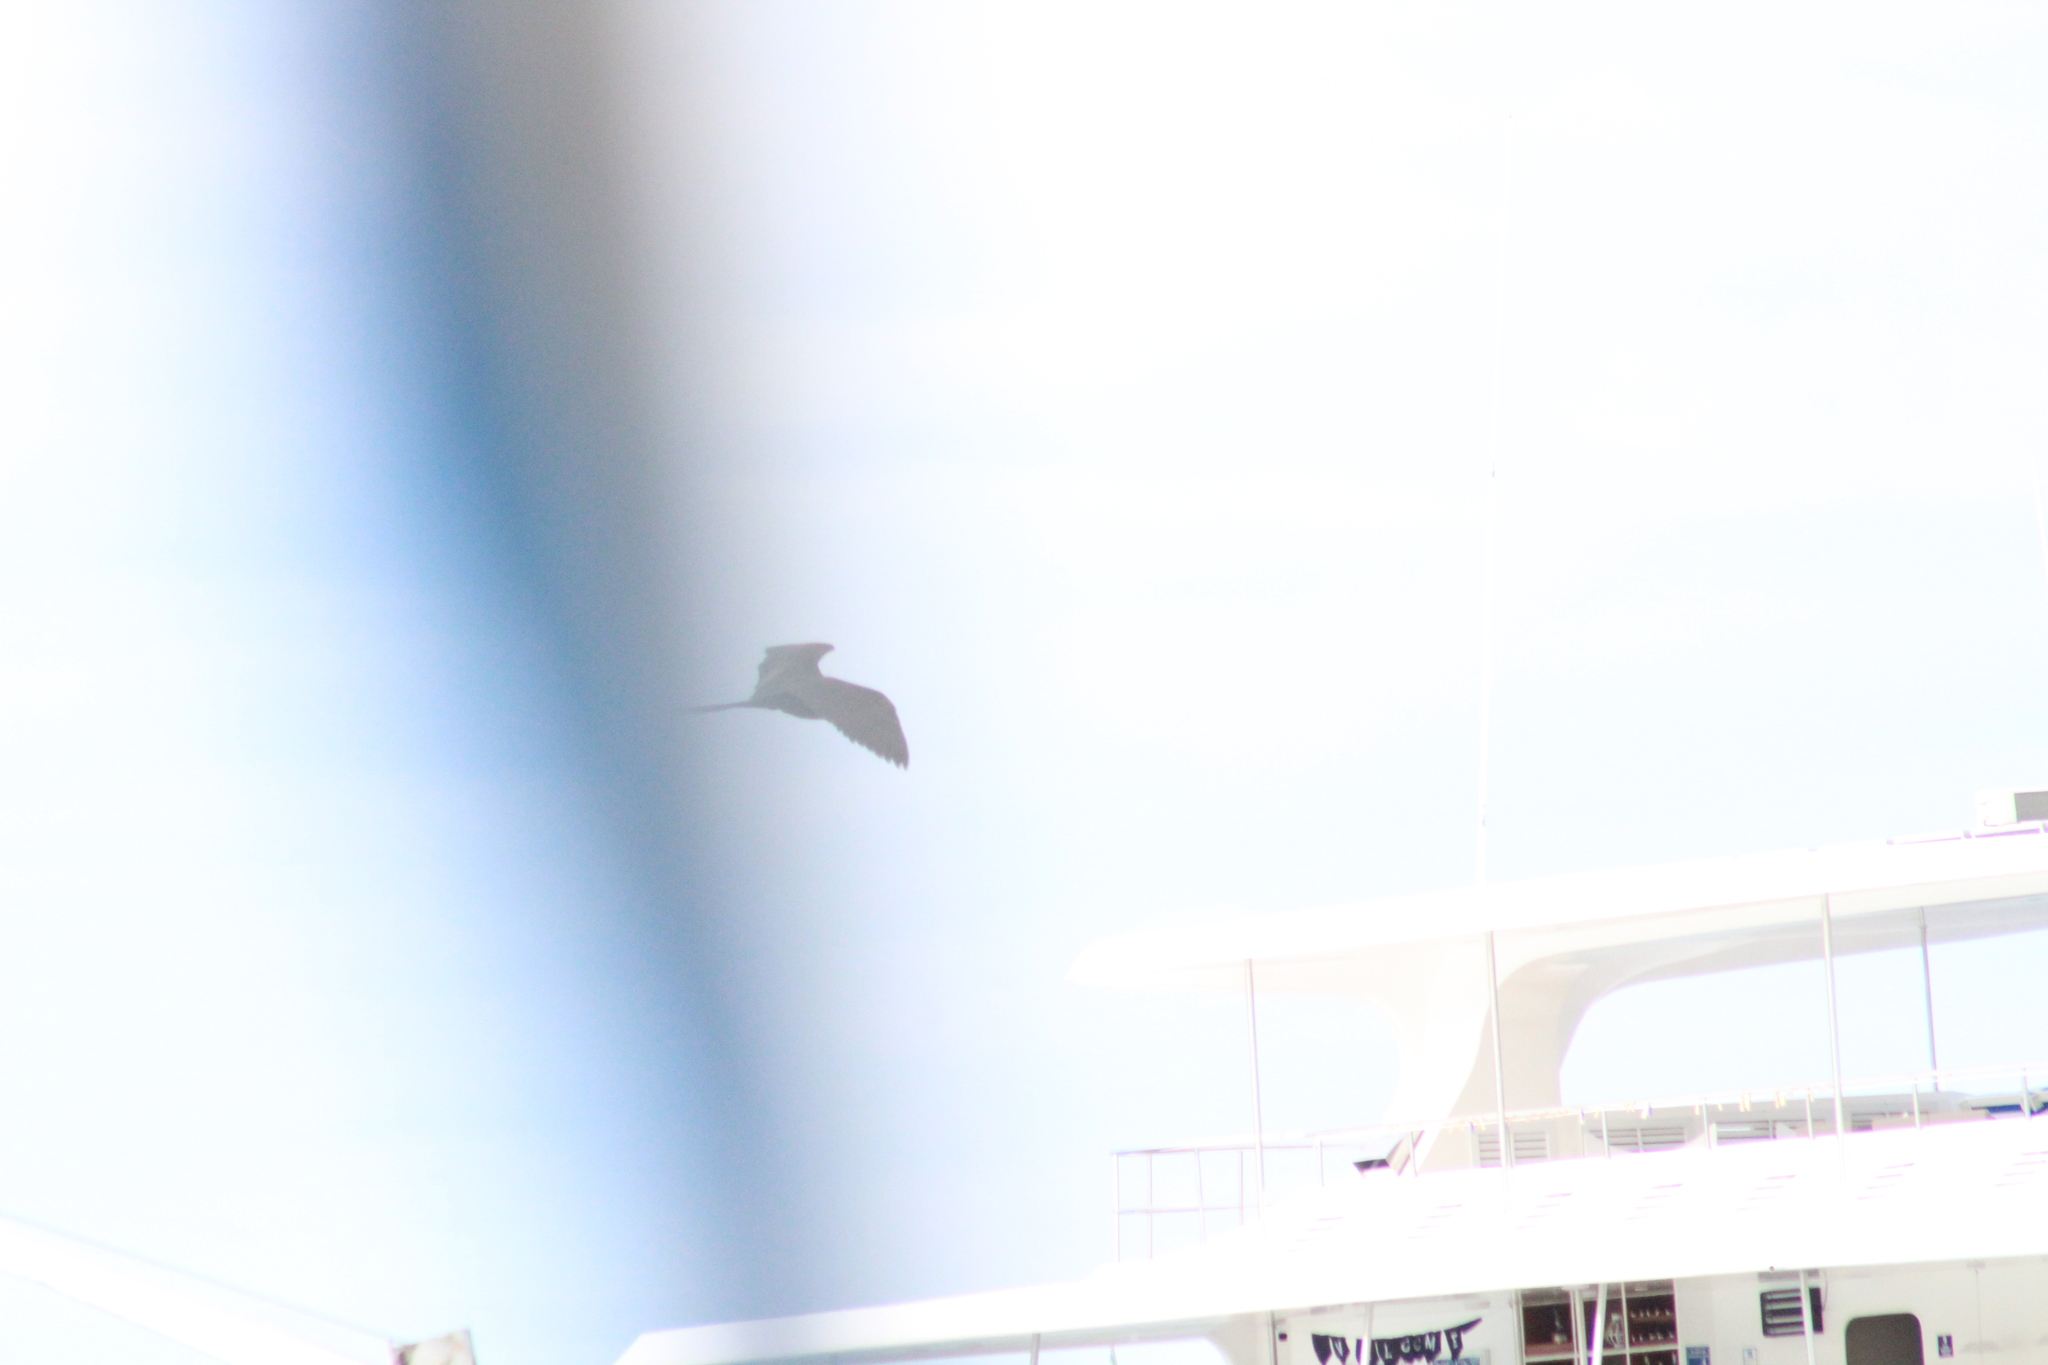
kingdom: Animalia
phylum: Chordata
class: Aves
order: Suliformes
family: Fregatidae
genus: Fregata
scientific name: Fregata magnificens
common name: Magnificent frigatebird
